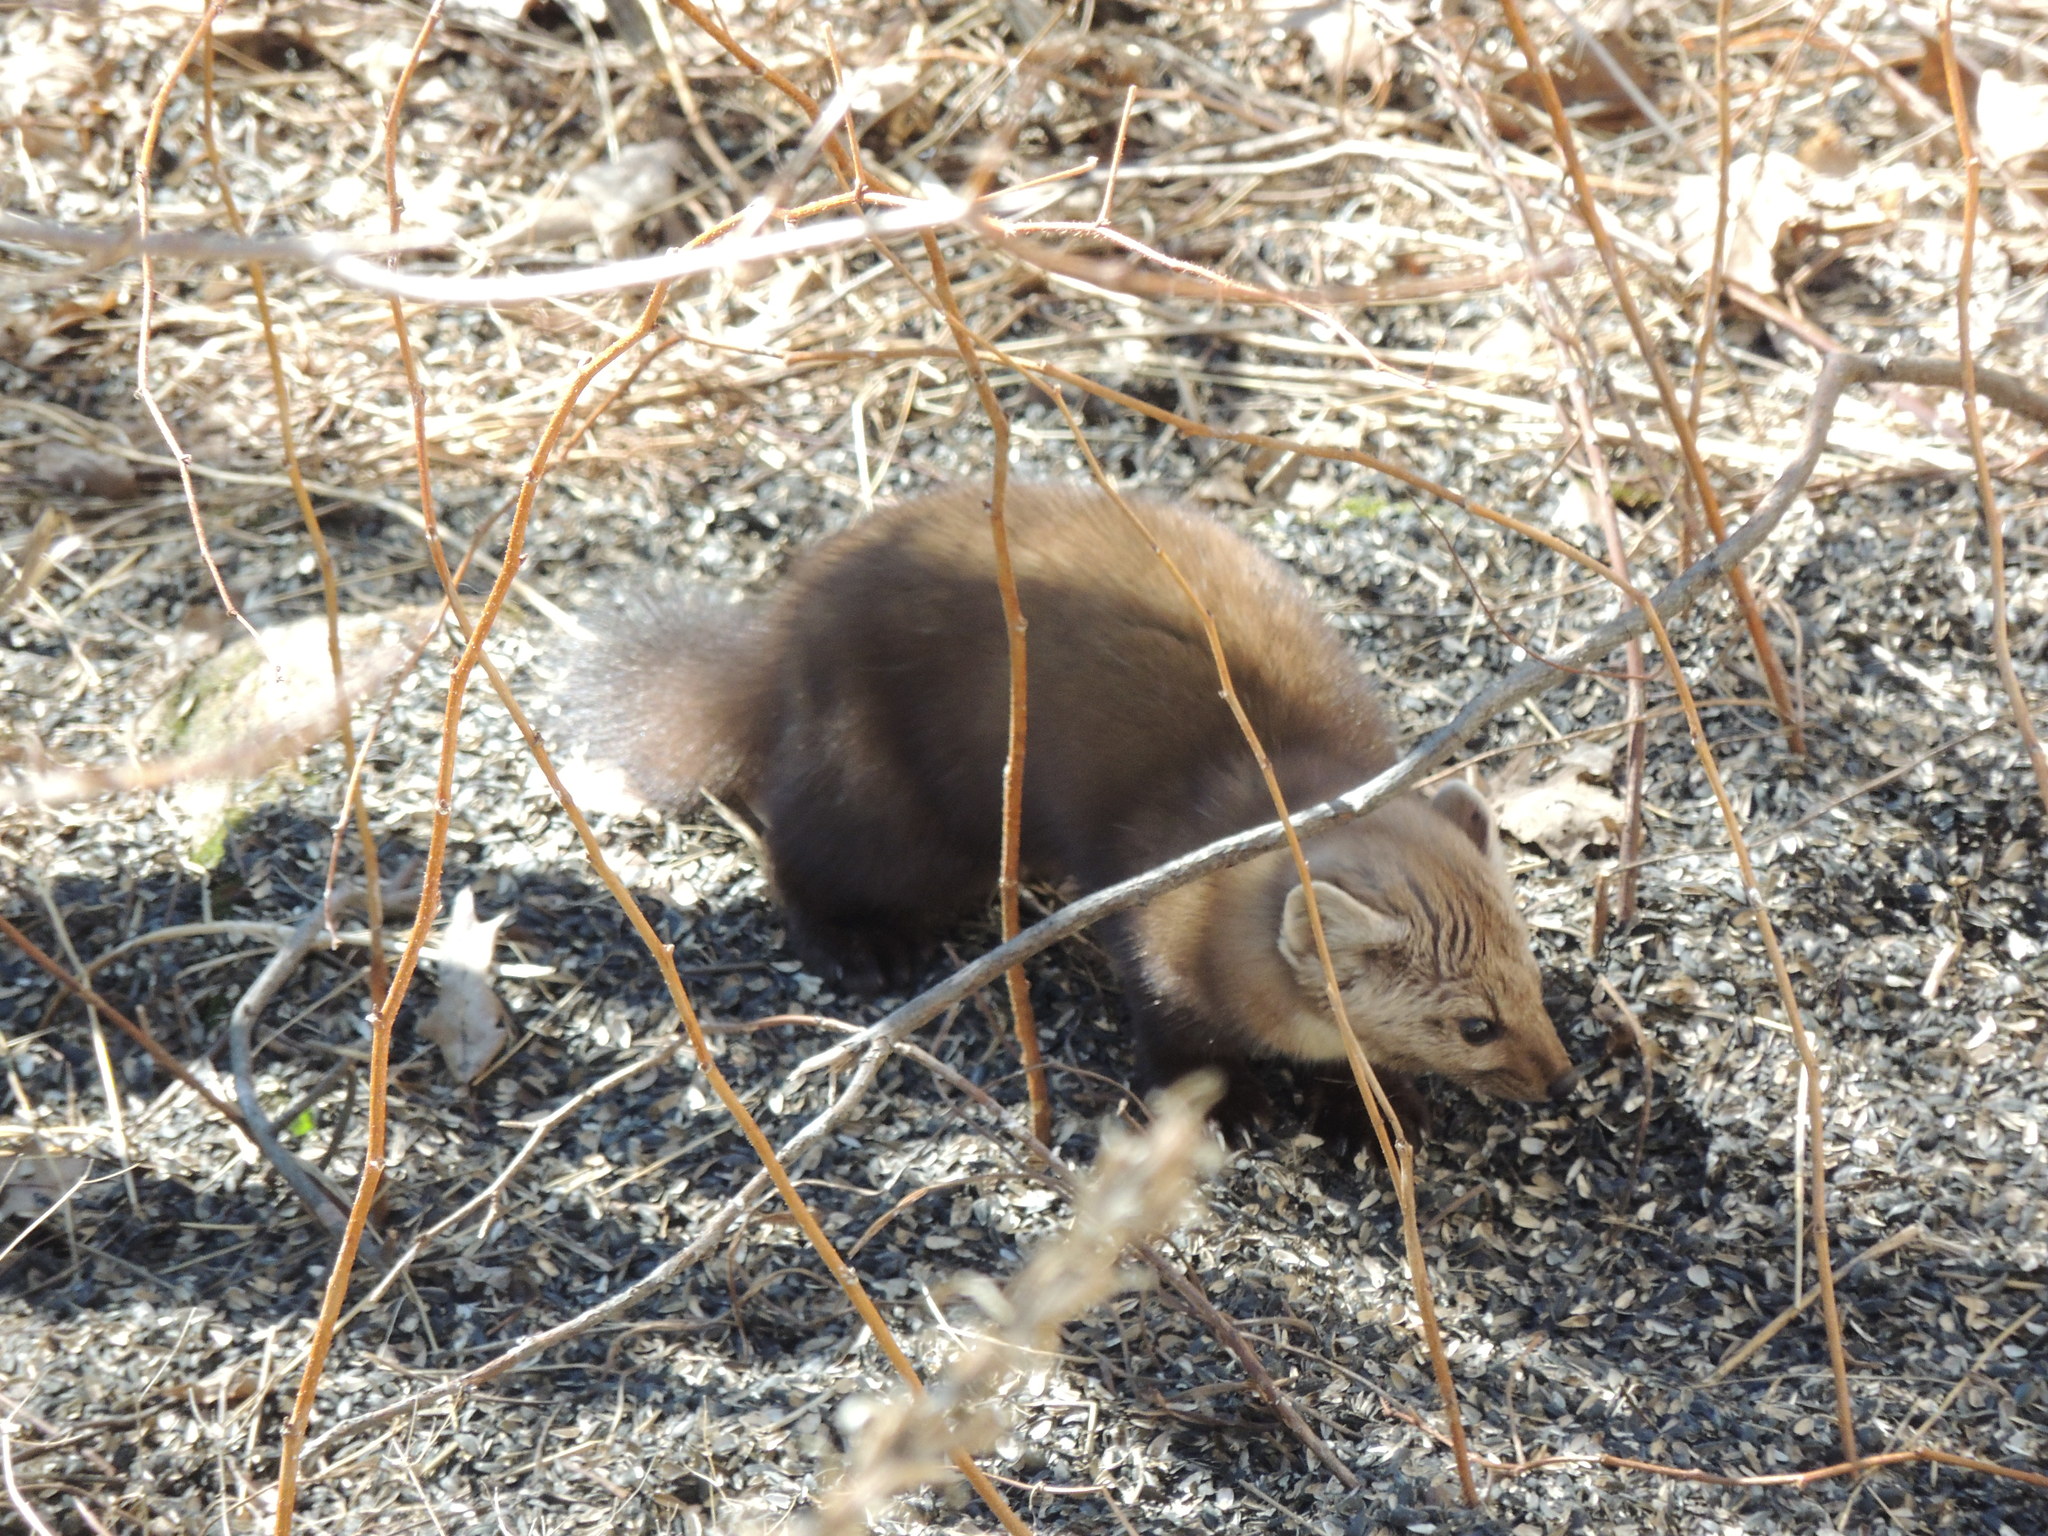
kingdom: Animalia
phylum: Chordata
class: Mammalia
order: Carnivora
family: Mustelidae
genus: Martes
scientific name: Martes americana
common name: American marten
